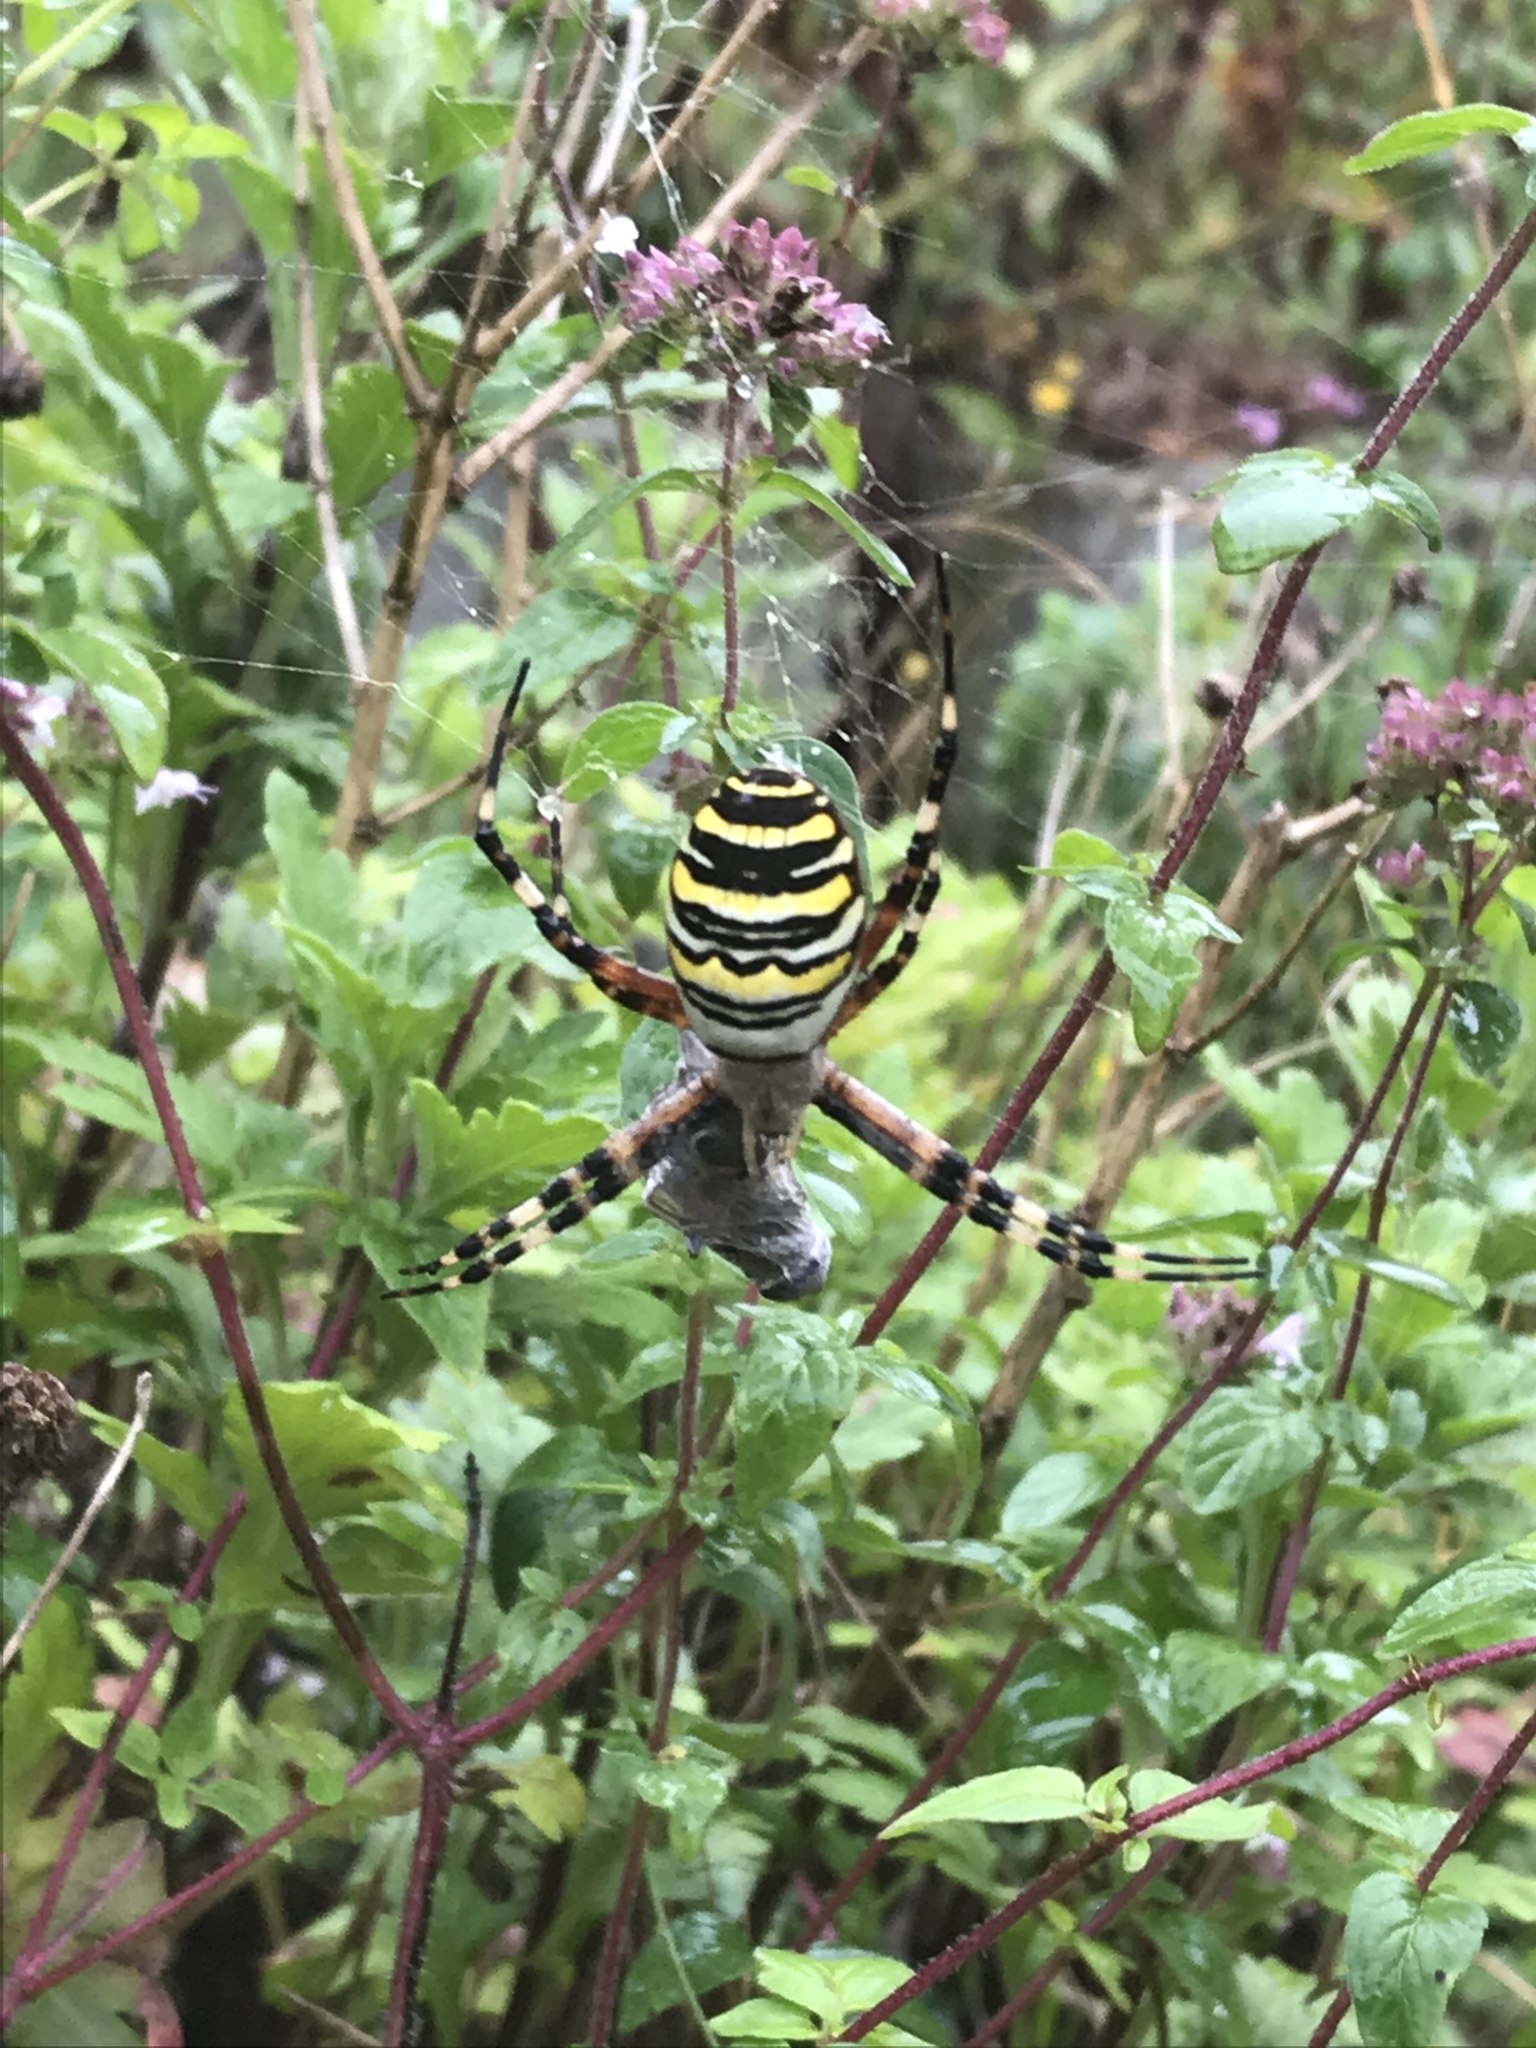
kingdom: Animalia
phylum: Arthropoda
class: Arachnida
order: Araneae
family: Araneidae
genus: Argiope
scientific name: Argiope bruennichi
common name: Wasp spider
